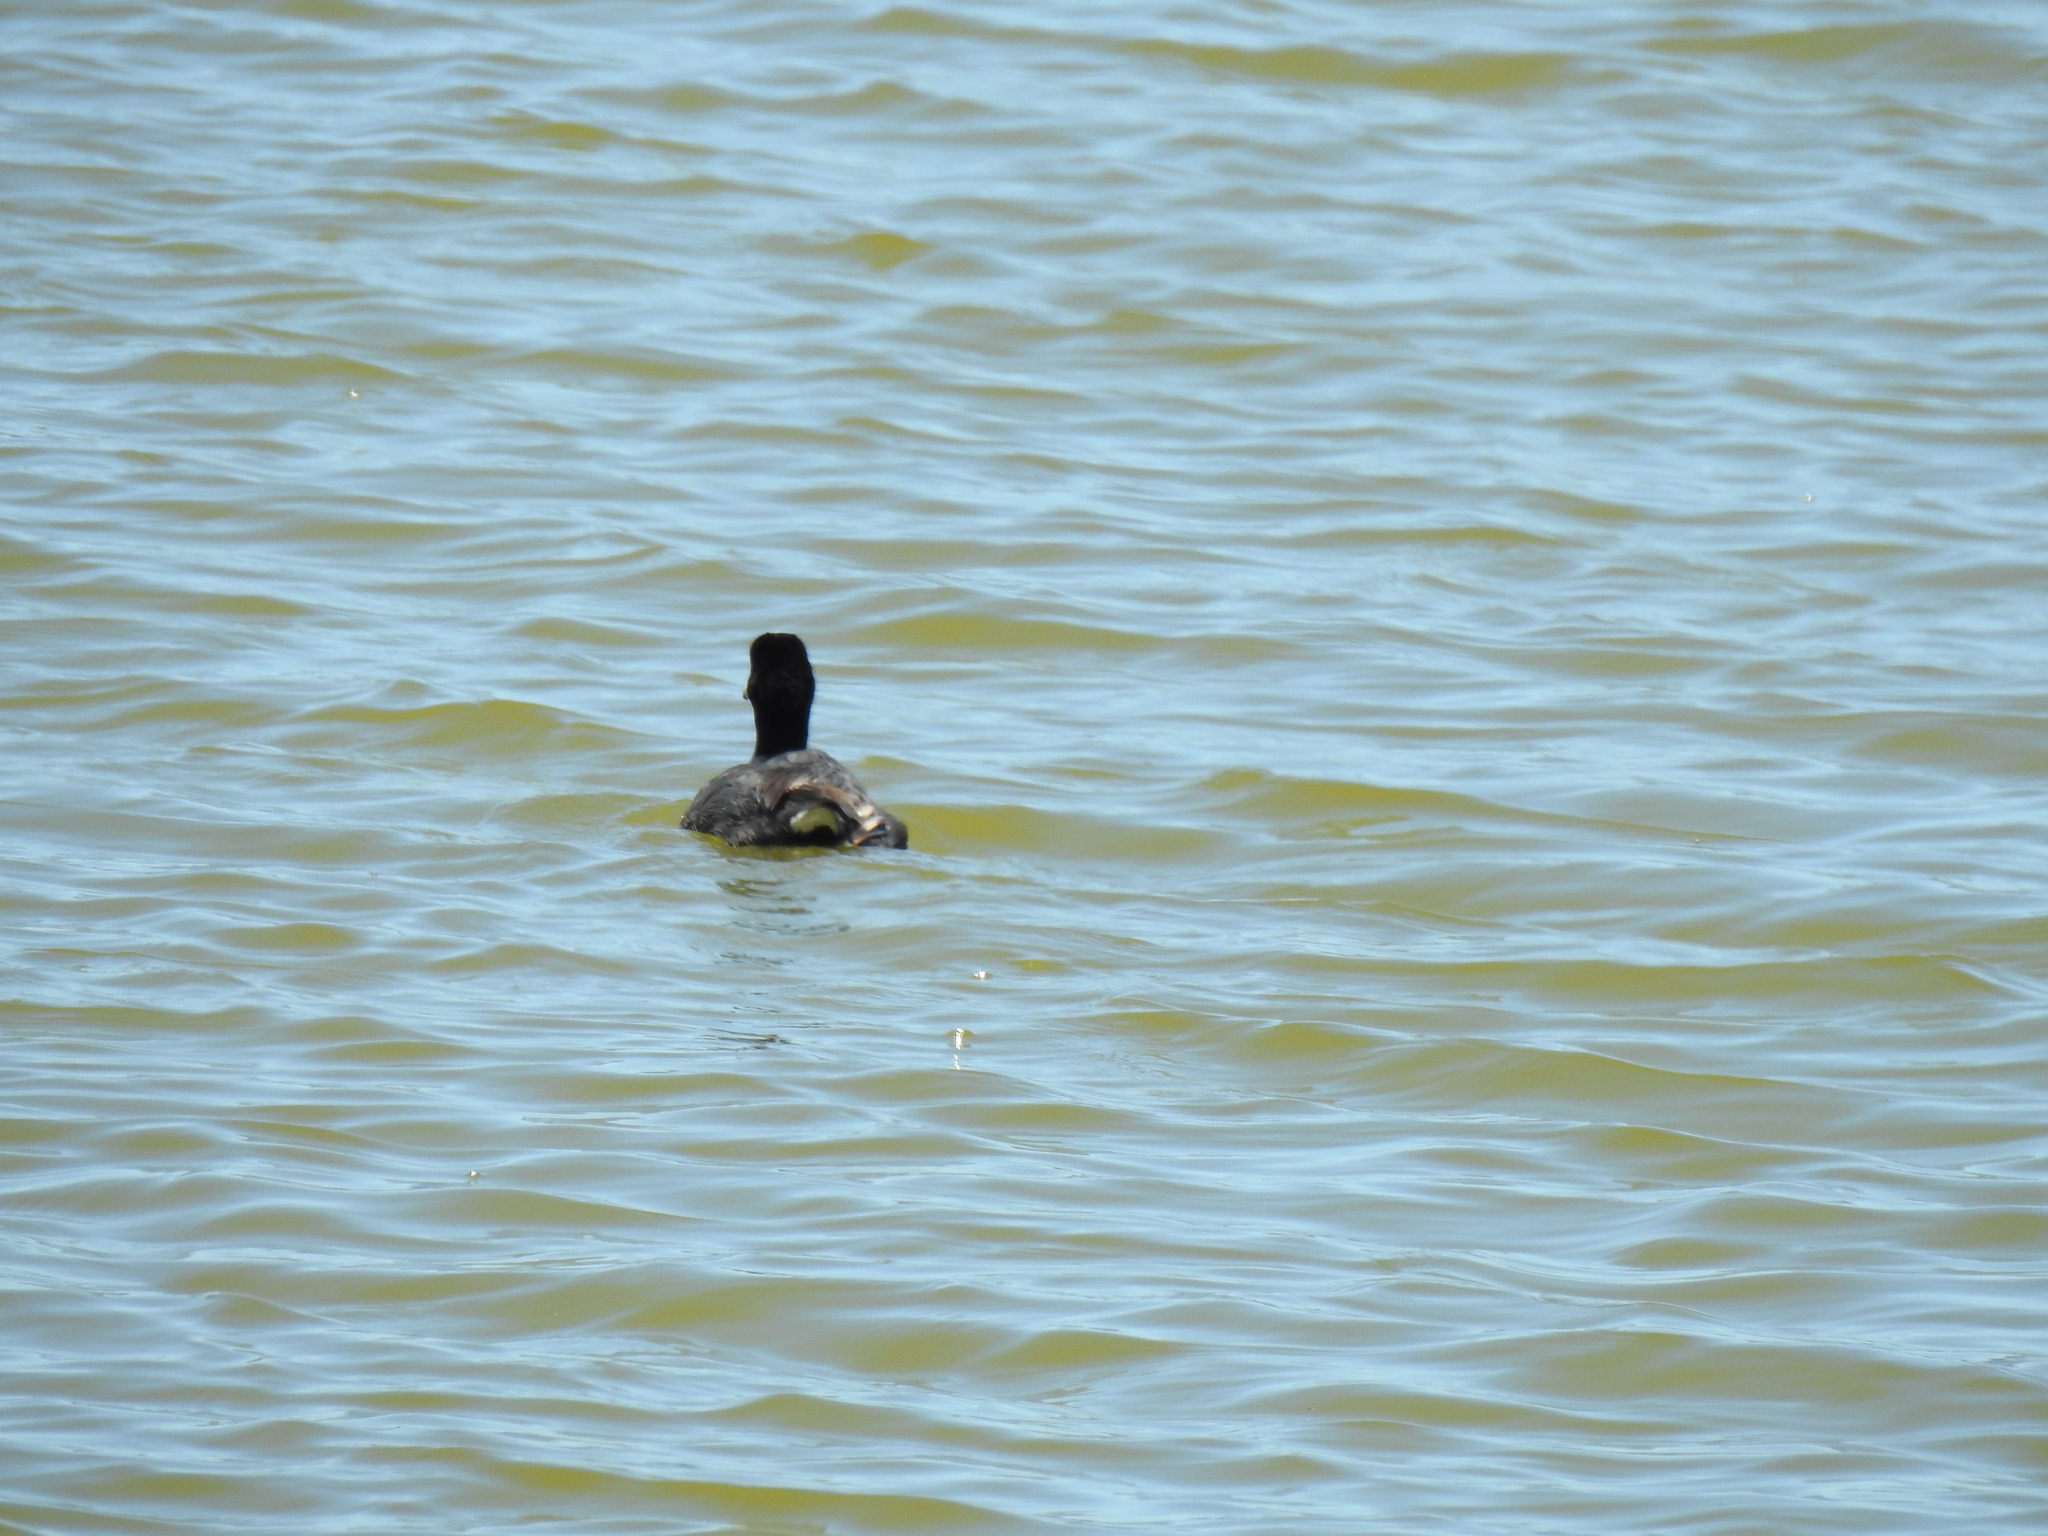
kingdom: Animalia
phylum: Chordata
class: Aves
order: Gruiformes
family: Rallidae
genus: Fulica
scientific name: Fulica americana
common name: American coot
